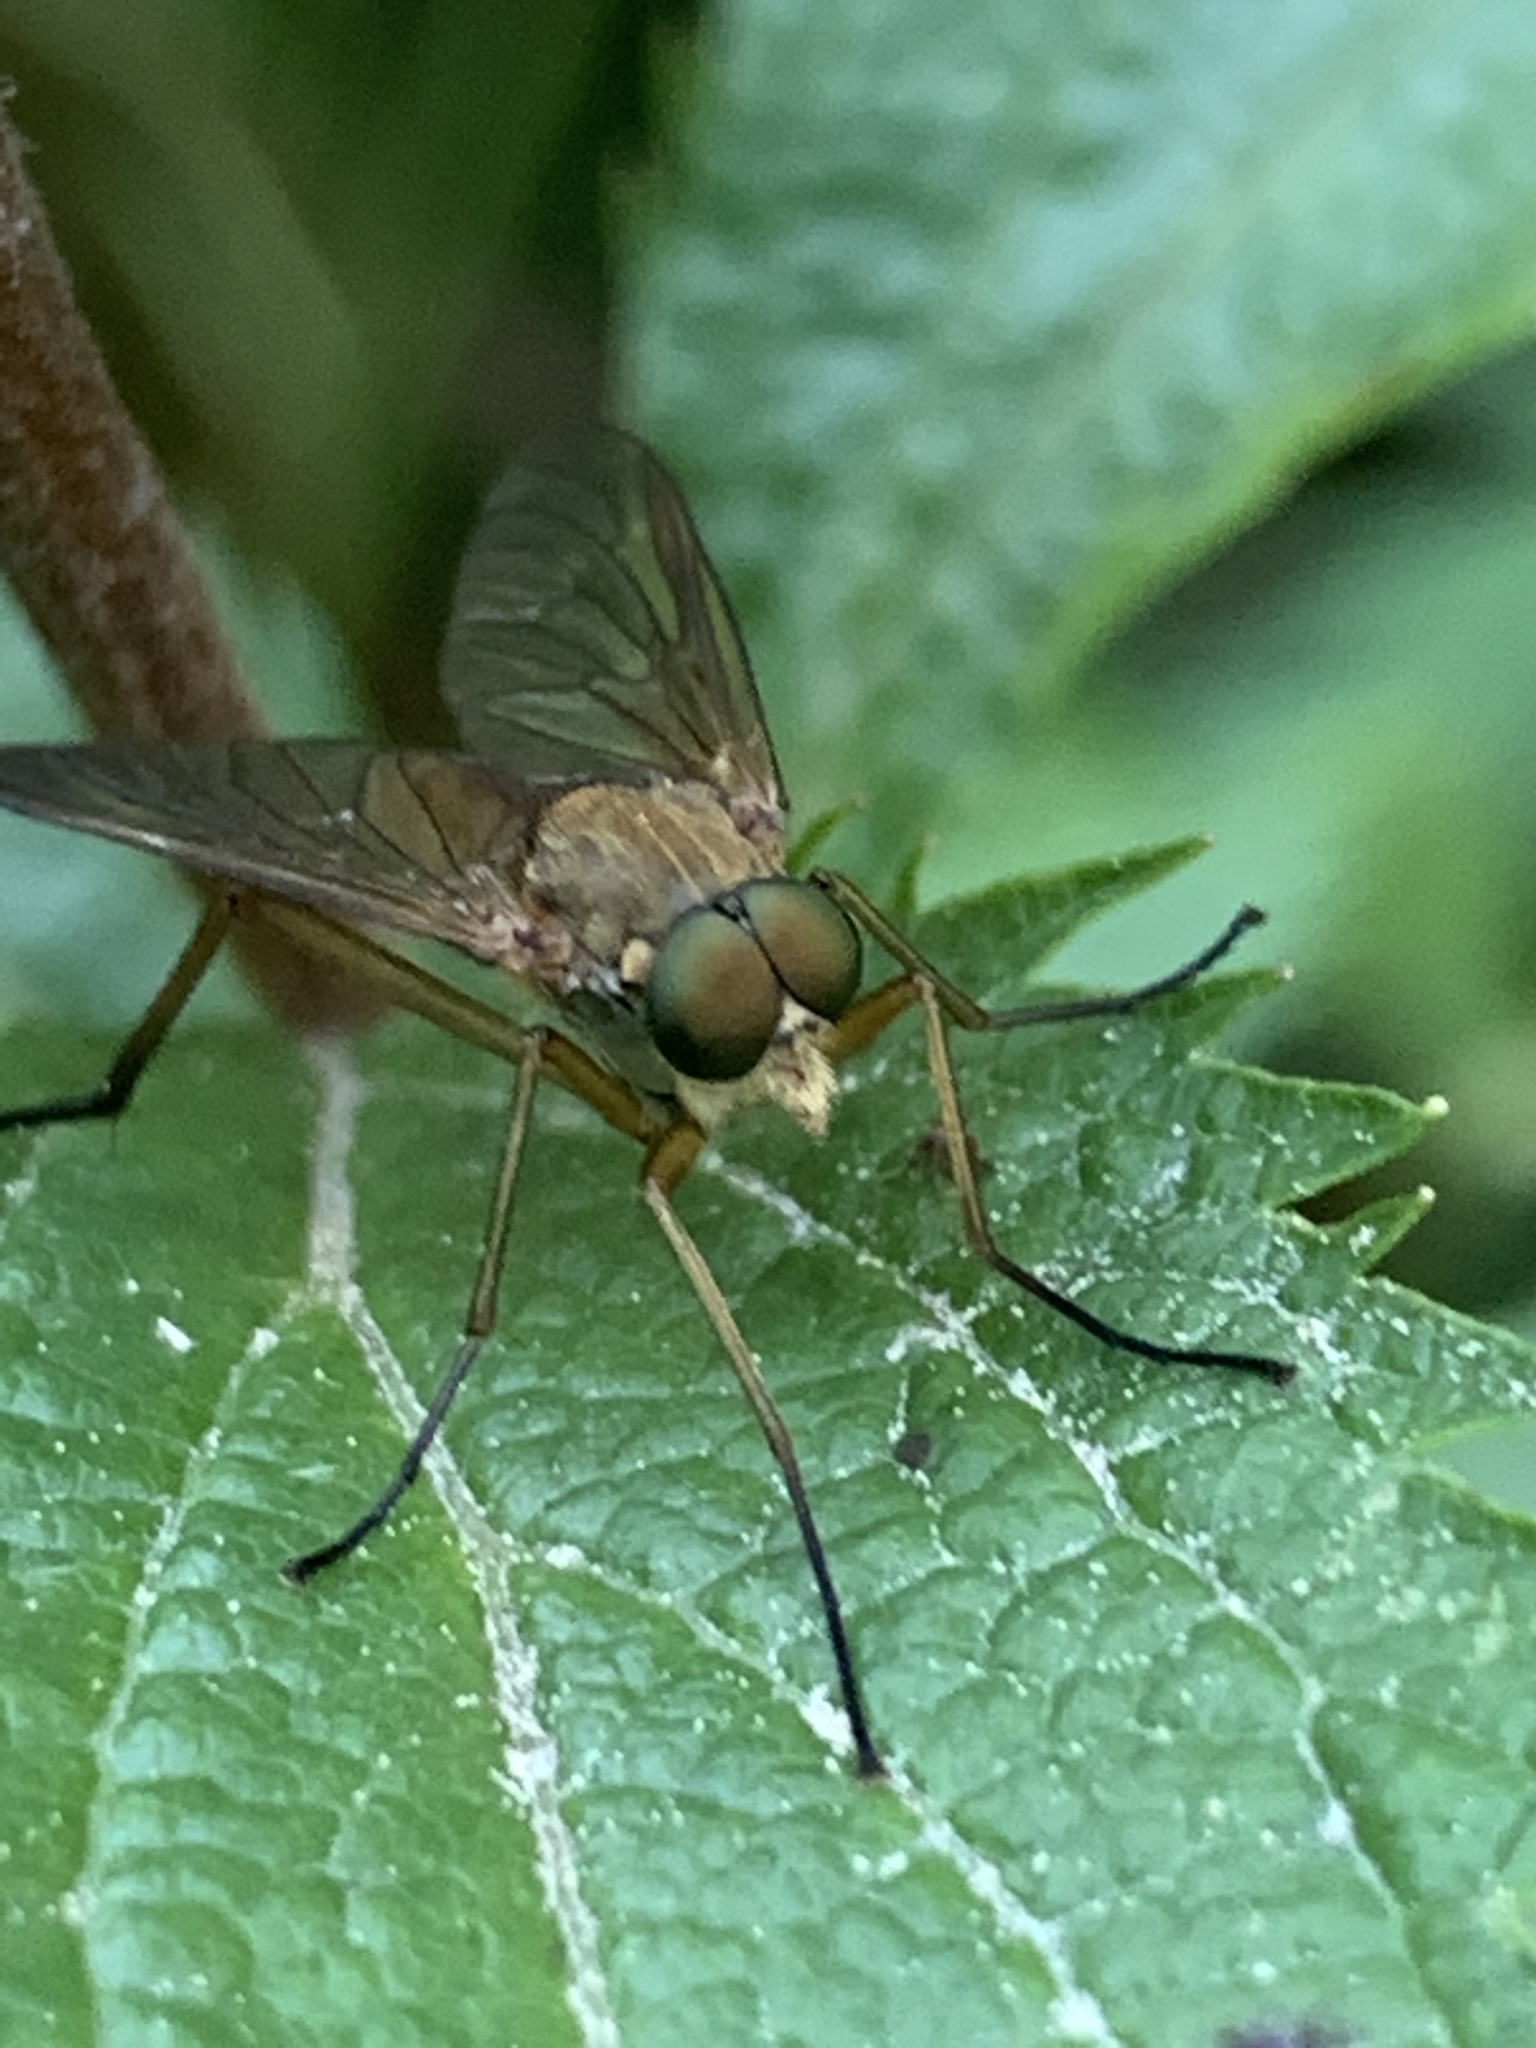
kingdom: Animalia
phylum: Arthropoda
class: Insecta
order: Diptera
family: Rhagionidae
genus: Rhagio
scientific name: Rhagio tringaria
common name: Marsh snipefly
